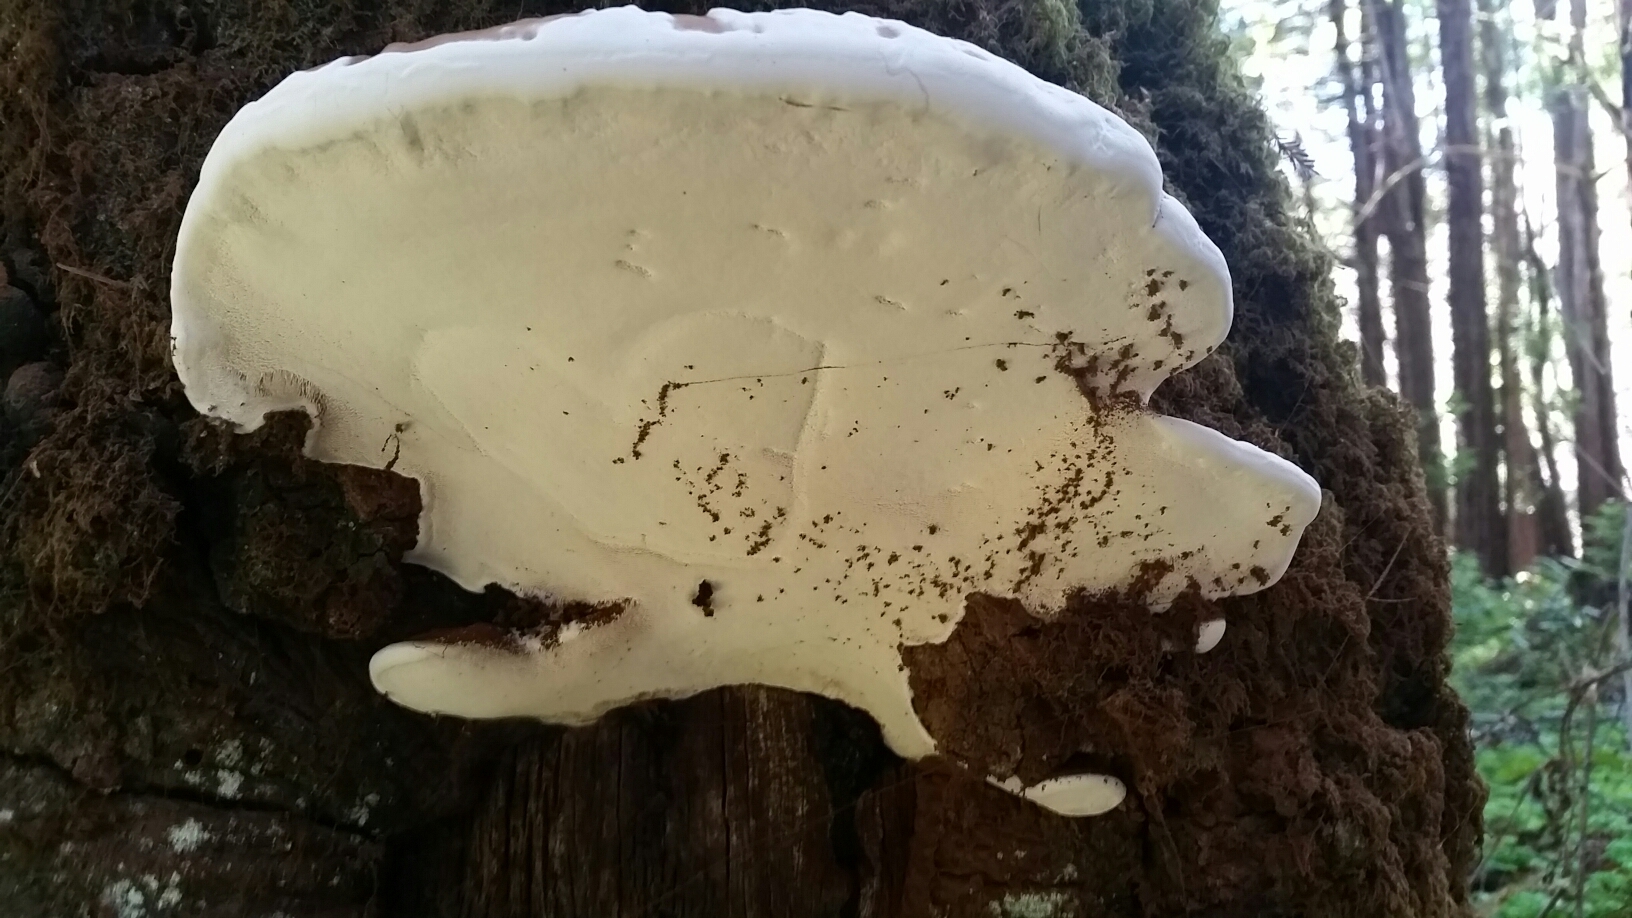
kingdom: Fungi
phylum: Basidiomycota
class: Agaricomycetes
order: Polyporales
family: Polyporaceae
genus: Ganoderma
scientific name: Ganoderma brownii
